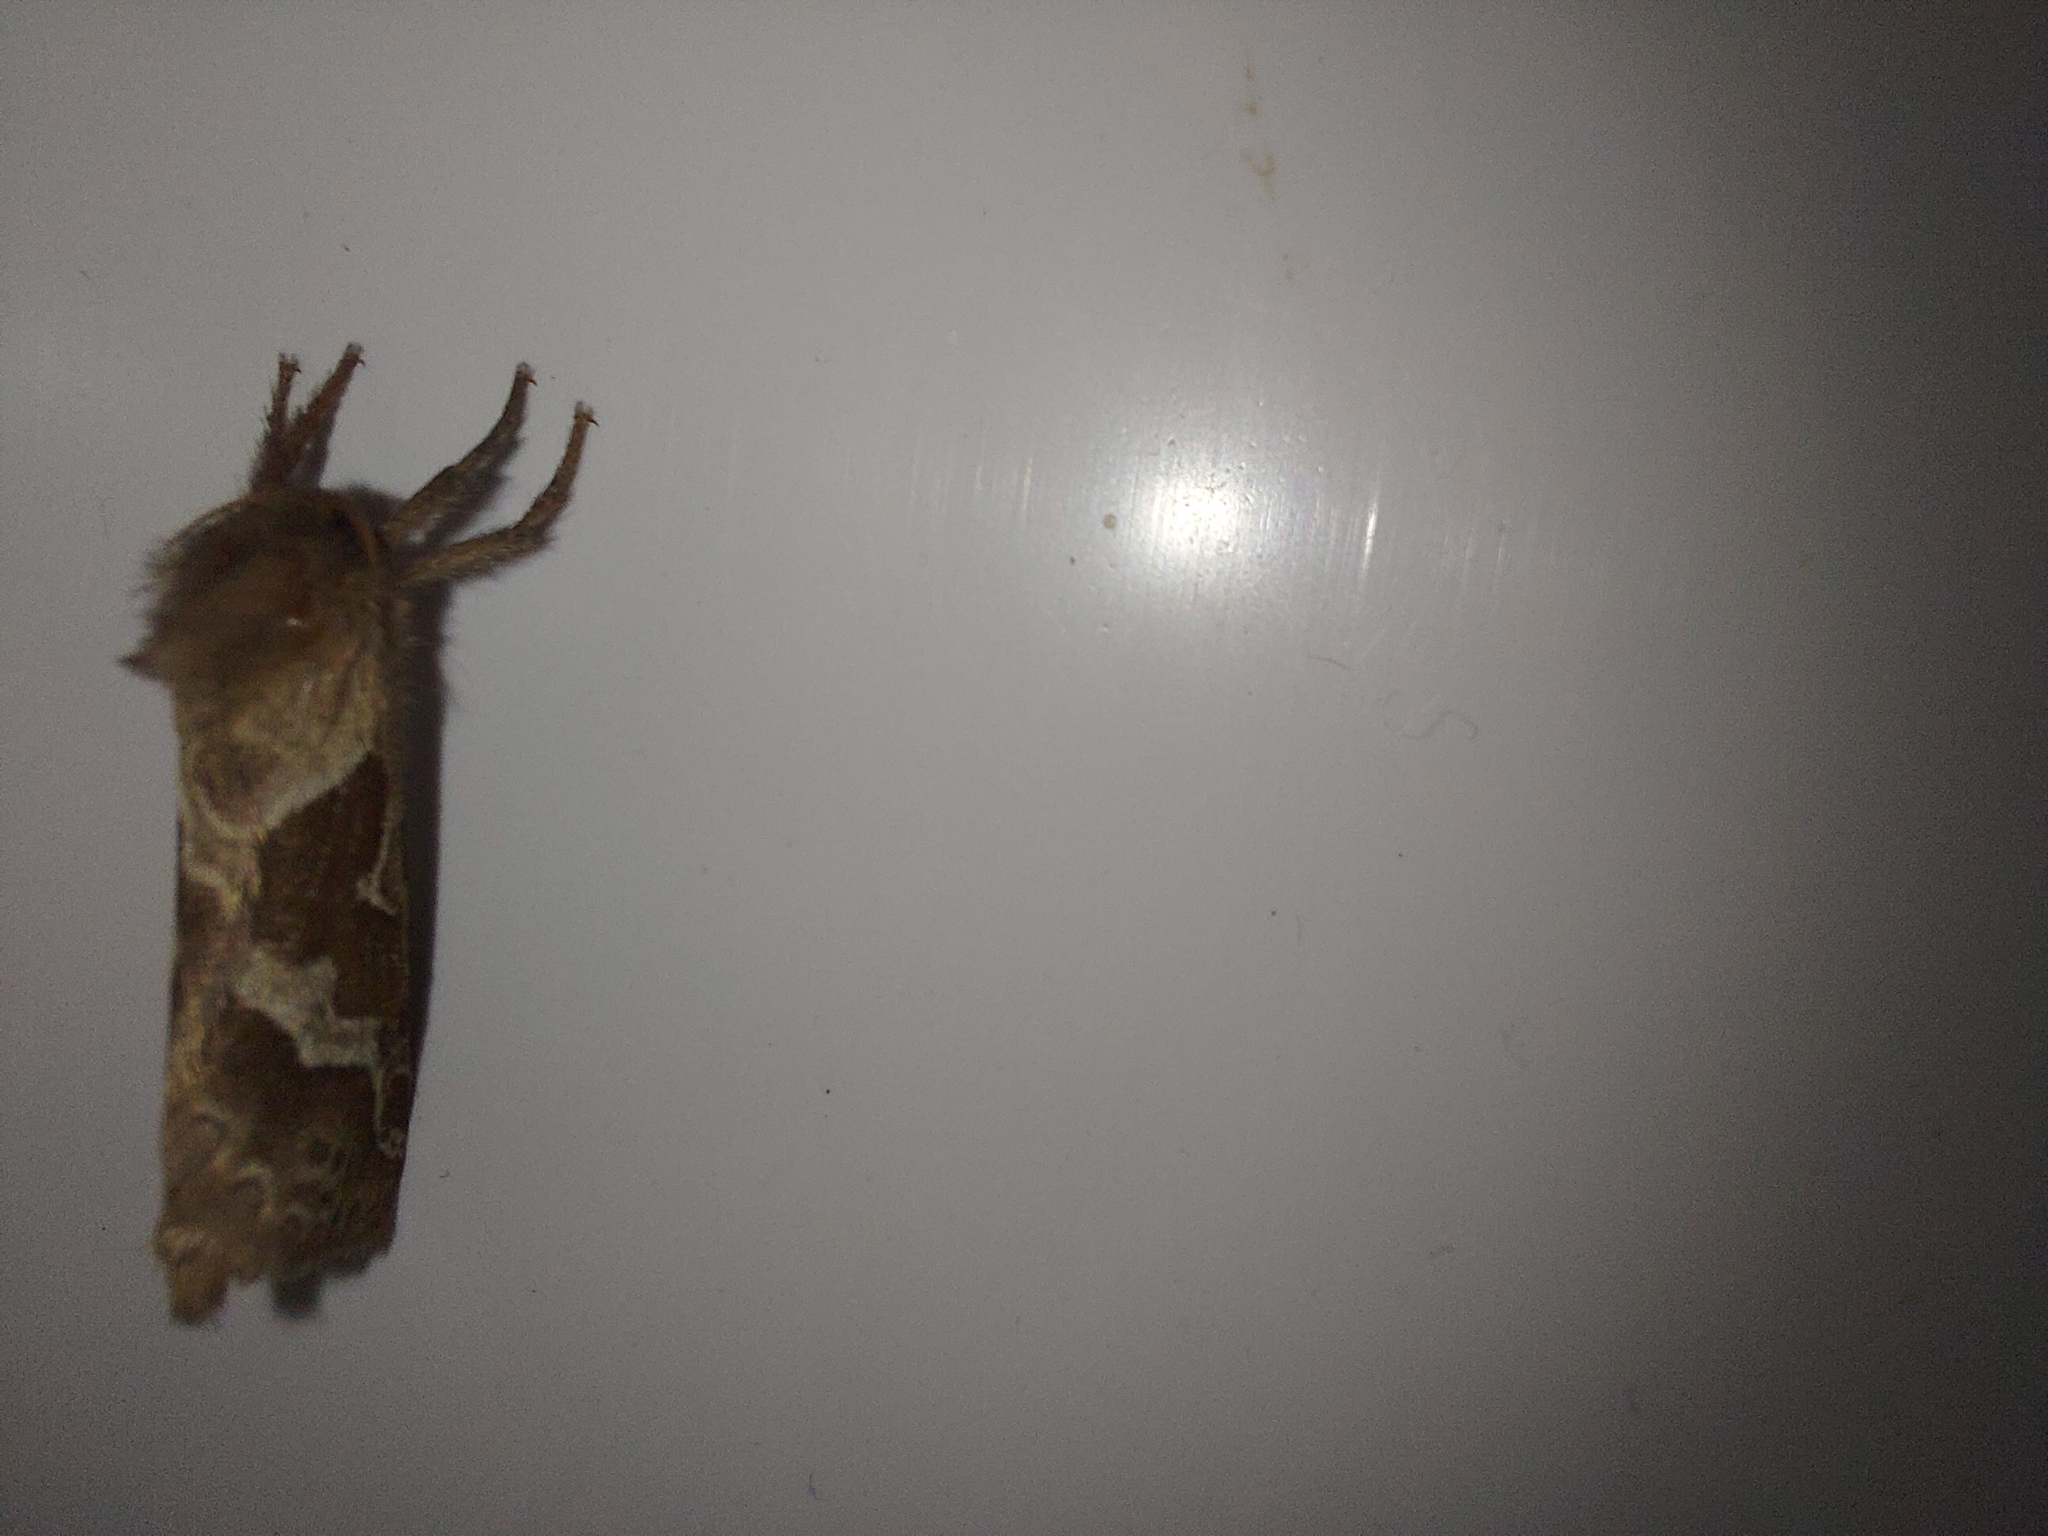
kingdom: Animalia
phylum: Arthropoda
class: Insecta
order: Lepidoptera
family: Hepialidae
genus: Triodia
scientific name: Triodia sylvina
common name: Orange swift
